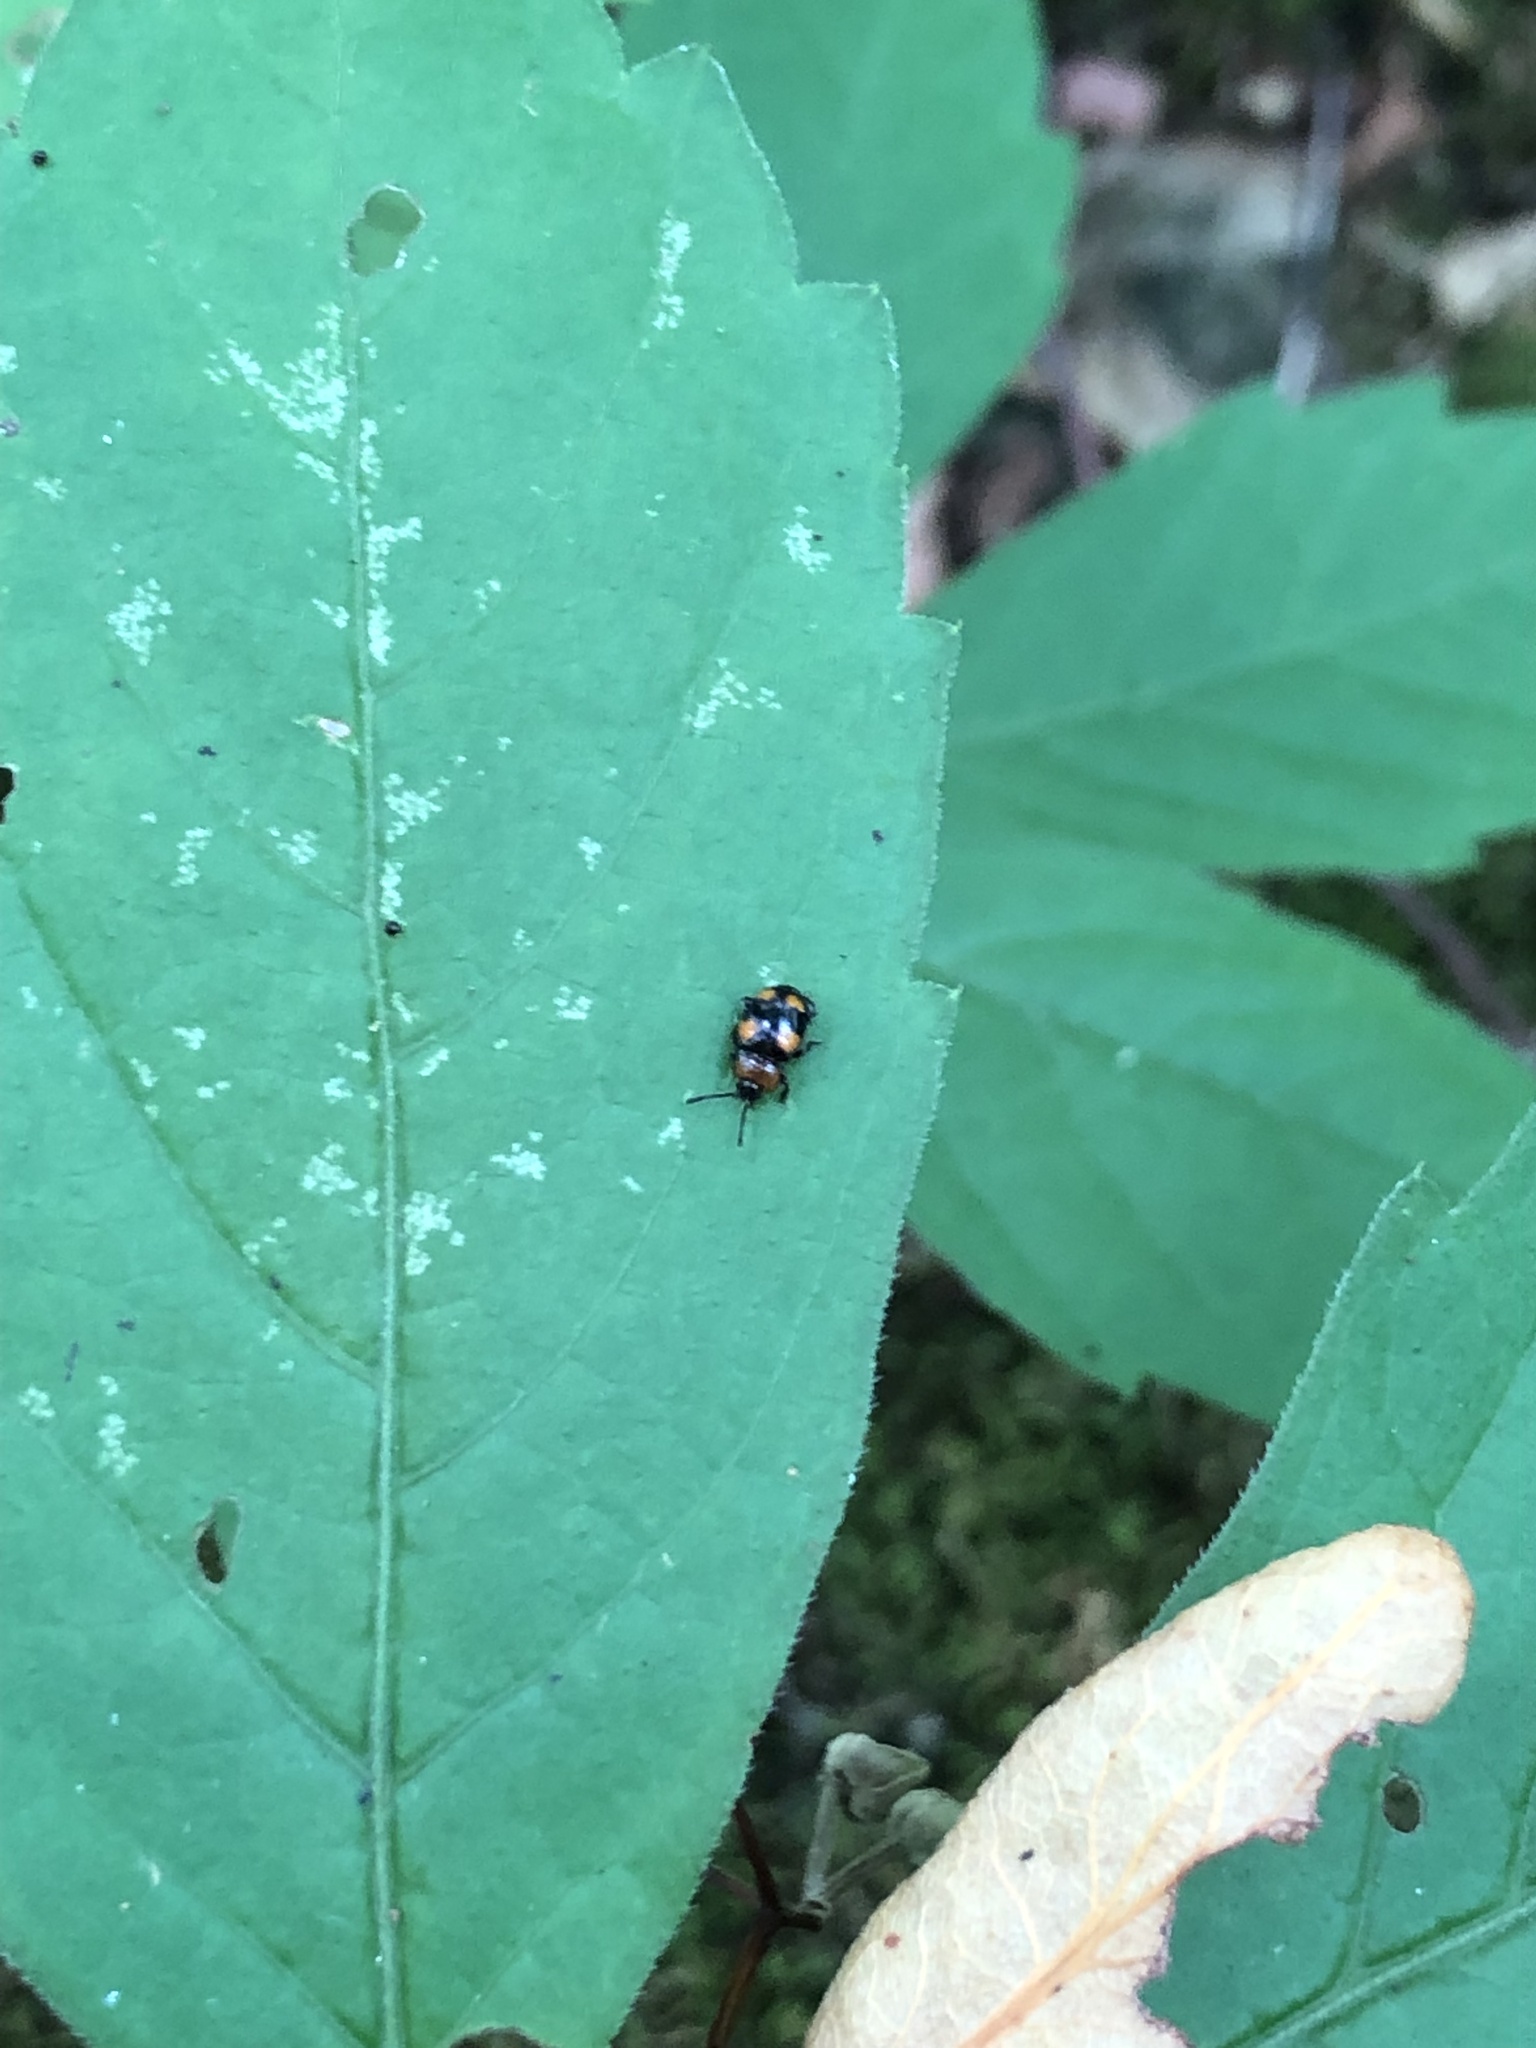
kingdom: Animalia
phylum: Arthropoda
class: Insecta
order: Coleoptera
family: Endomychidae
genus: Mycetina
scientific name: Mycetina perpulchra
